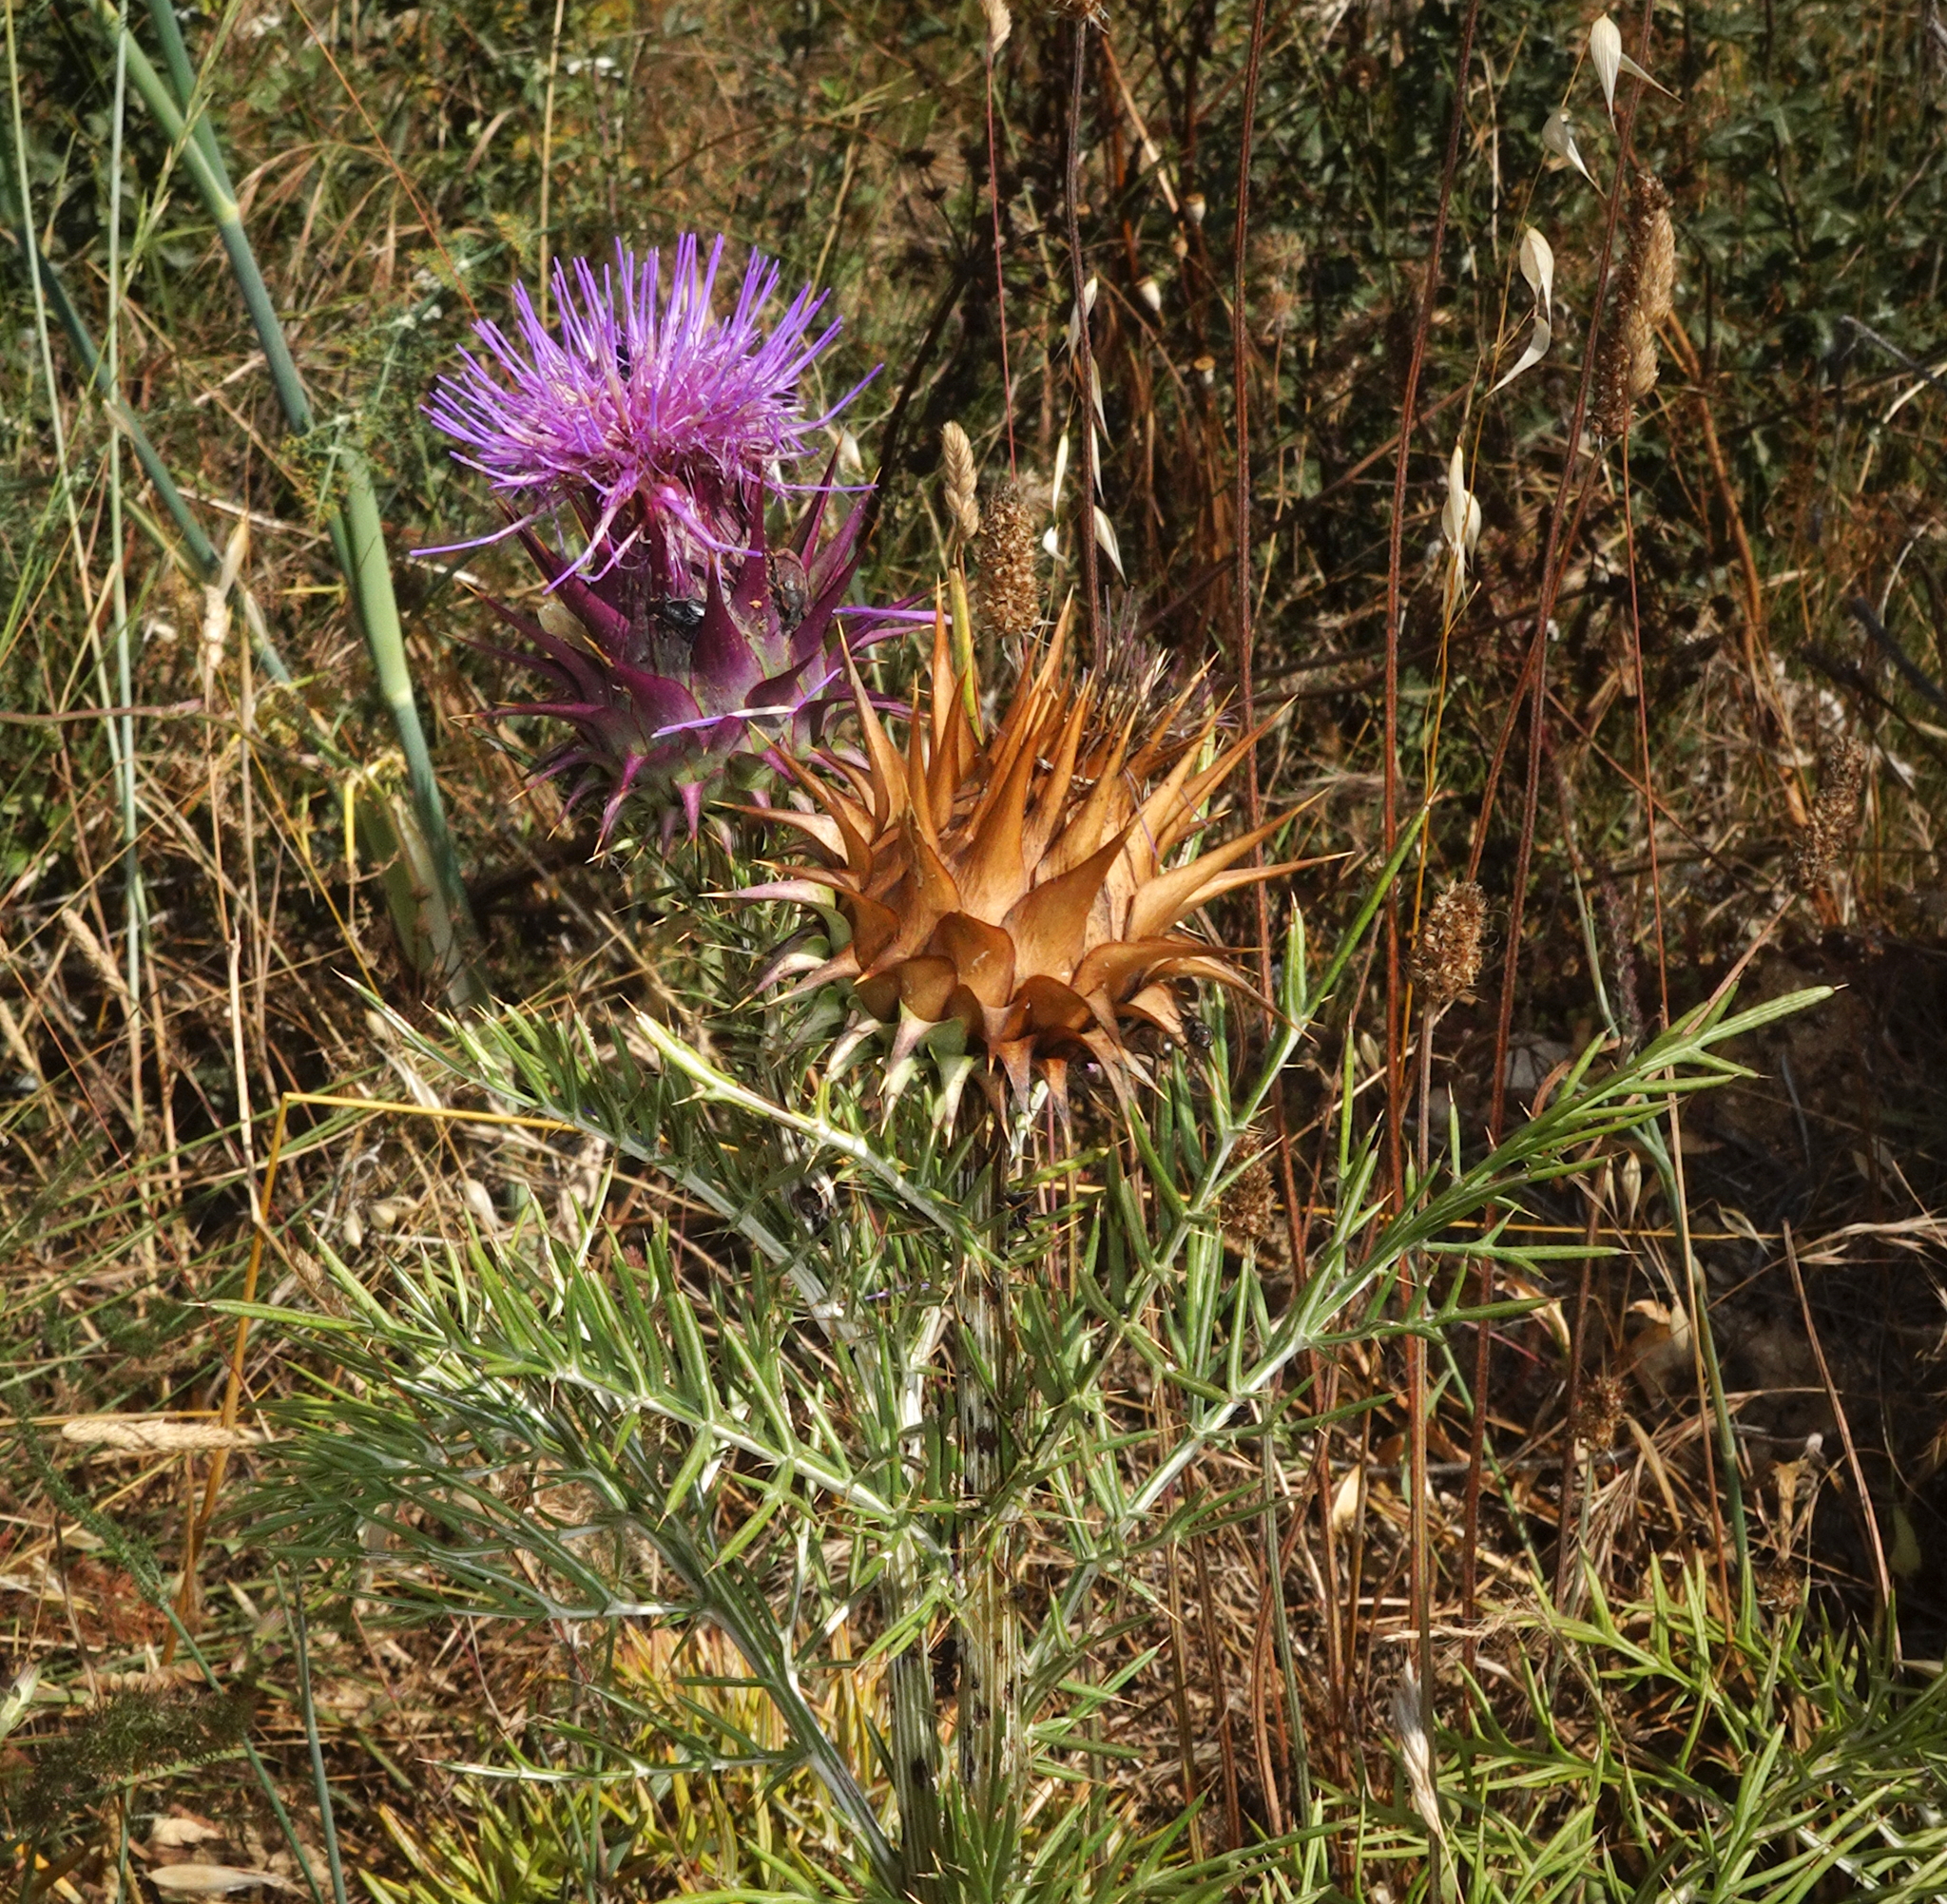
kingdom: Plantae
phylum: Tracheophyta
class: Magnoliopsida
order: Asterales
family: Asteraceae
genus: Cynara
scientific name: Cynara humilis
